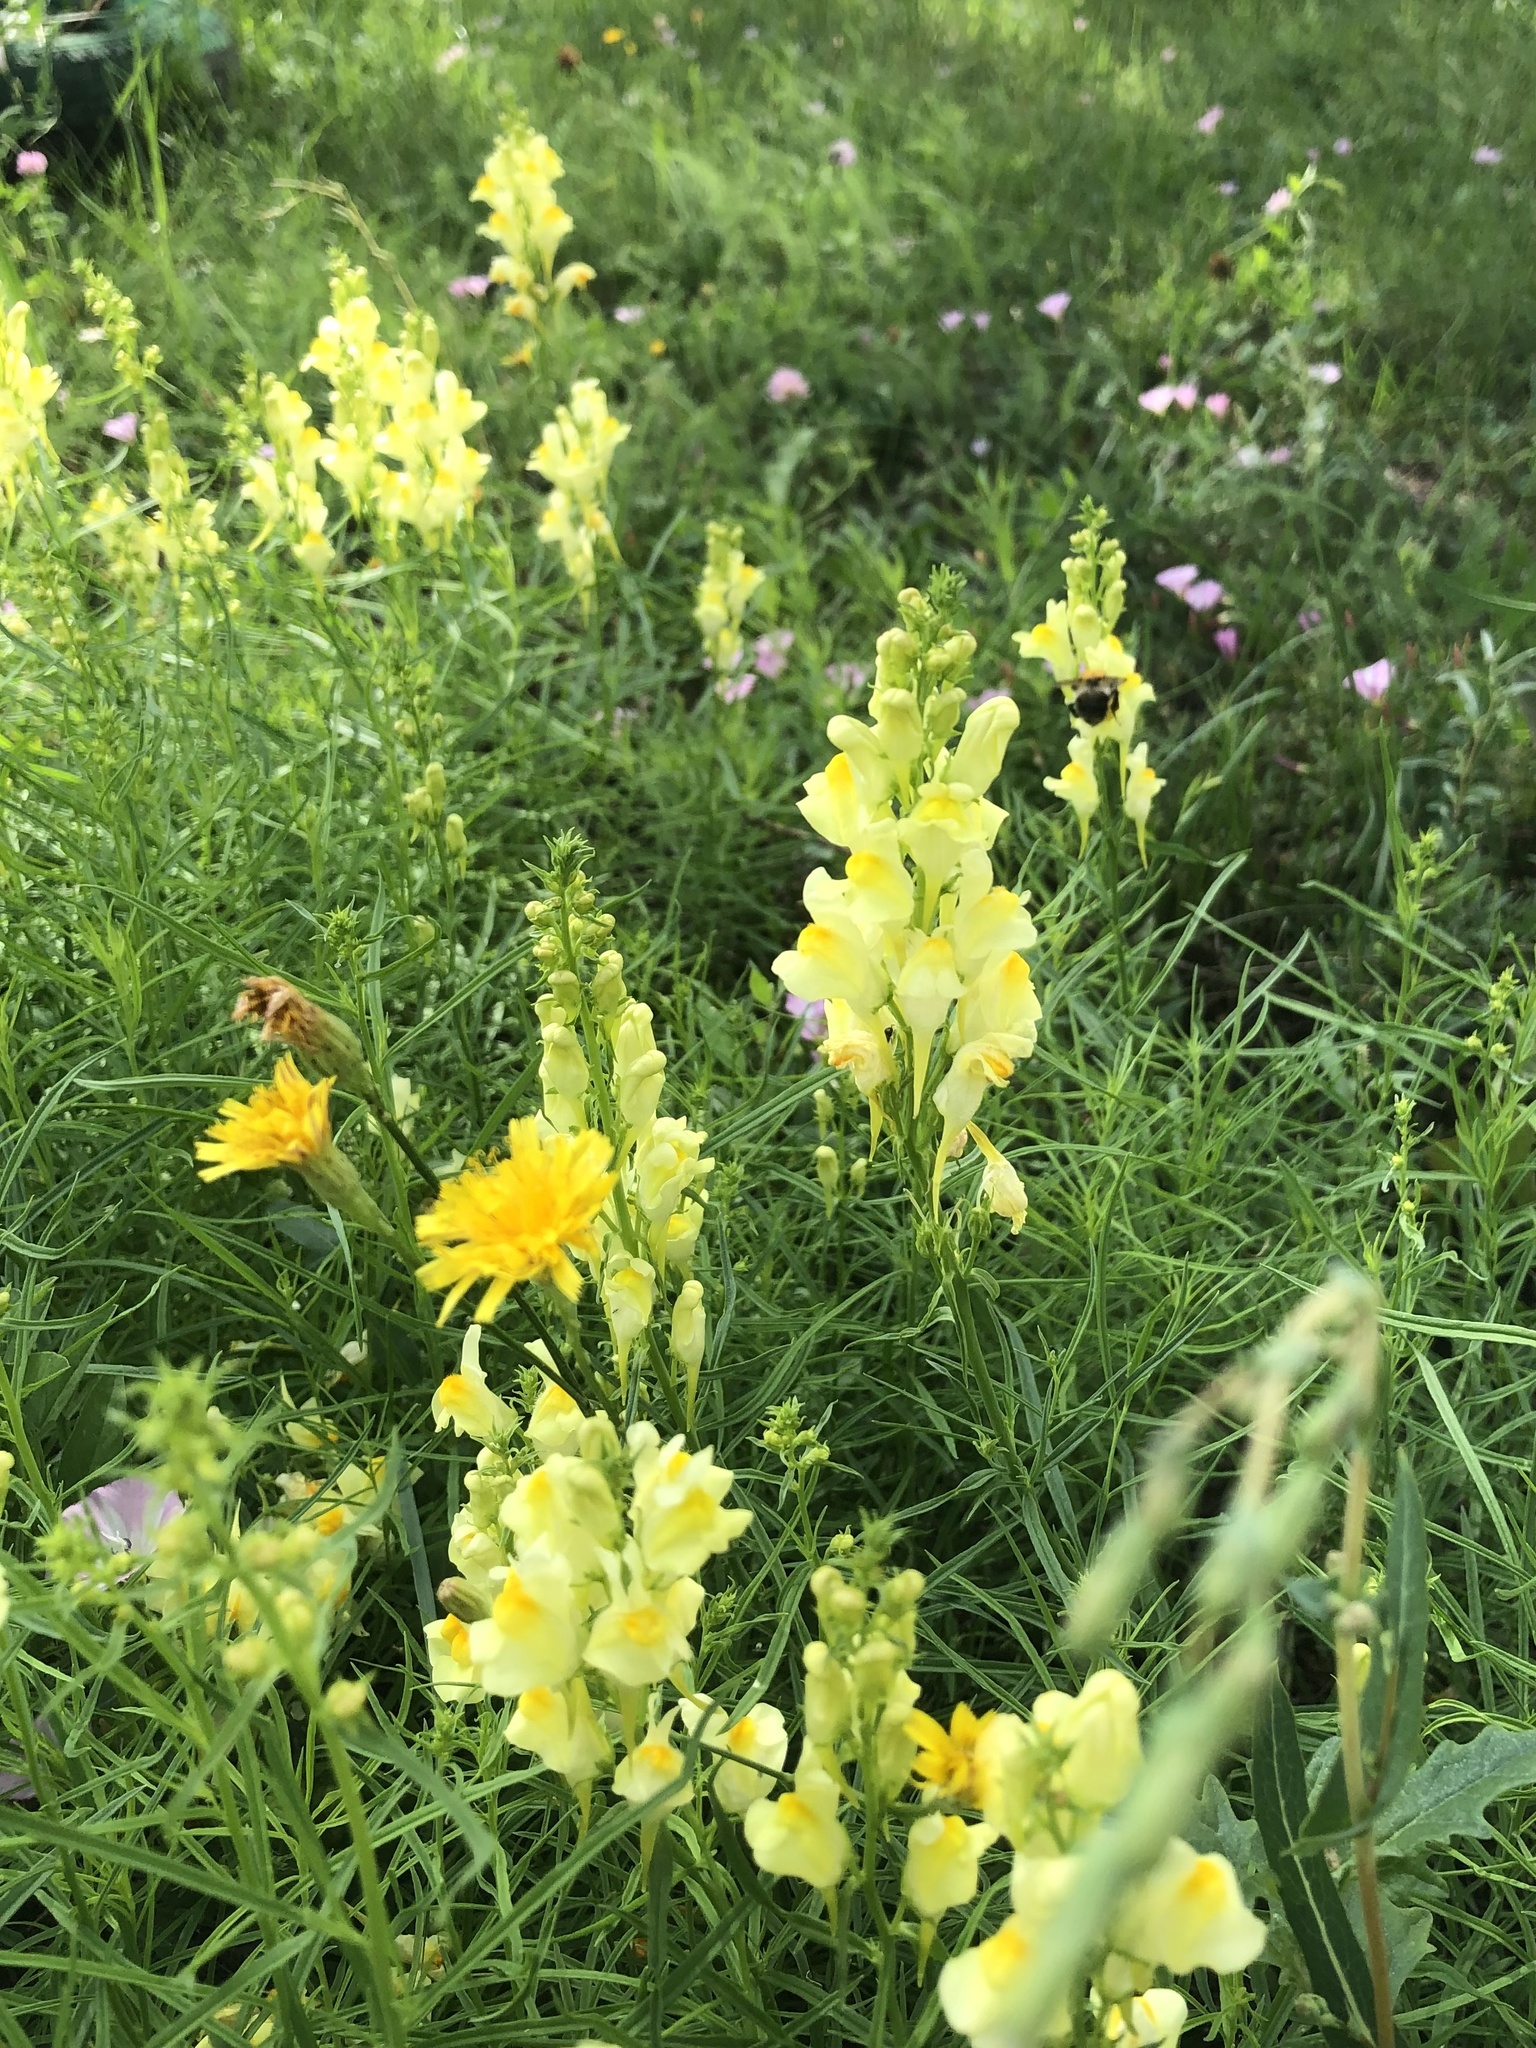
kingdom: Plantae
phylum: Tracheophyta
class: Magnoliopsida
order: Lamiales
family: Plantaginaceae
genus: Linaria
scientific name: Linaria vulgaris
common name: Butter and eggs
